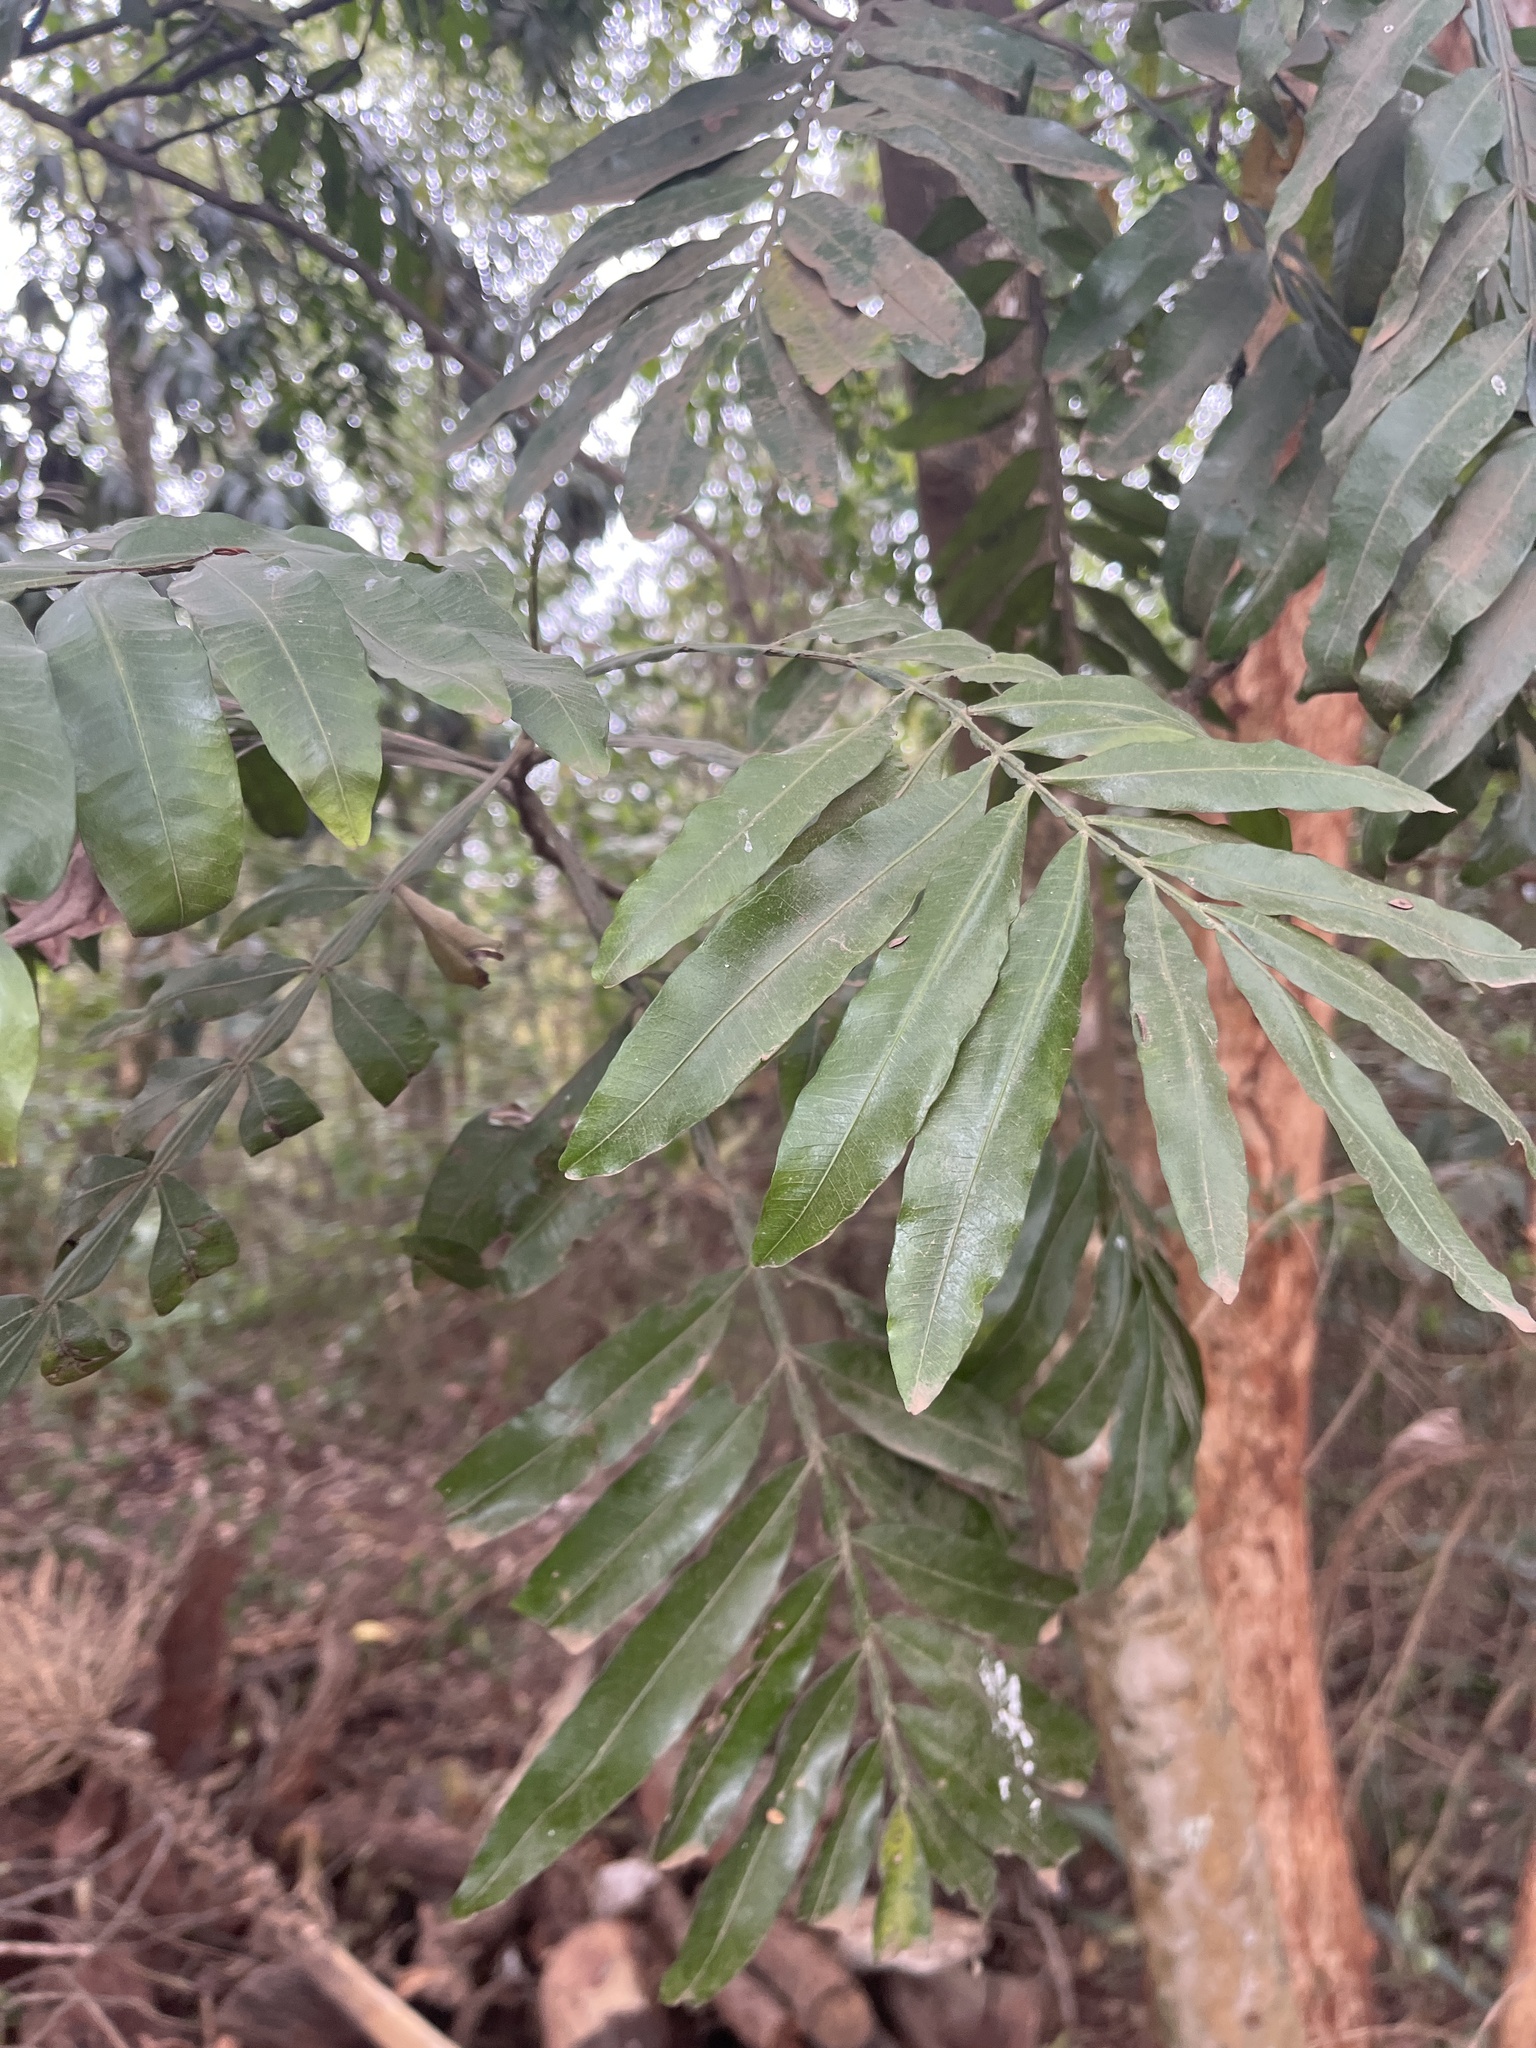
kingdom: Plantae
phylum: Tracheophyta
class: Magnoliopsida
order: Sapindales
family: Sapindaceae
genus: Filicium
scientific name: Filicium decipiens
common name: Ferntree
